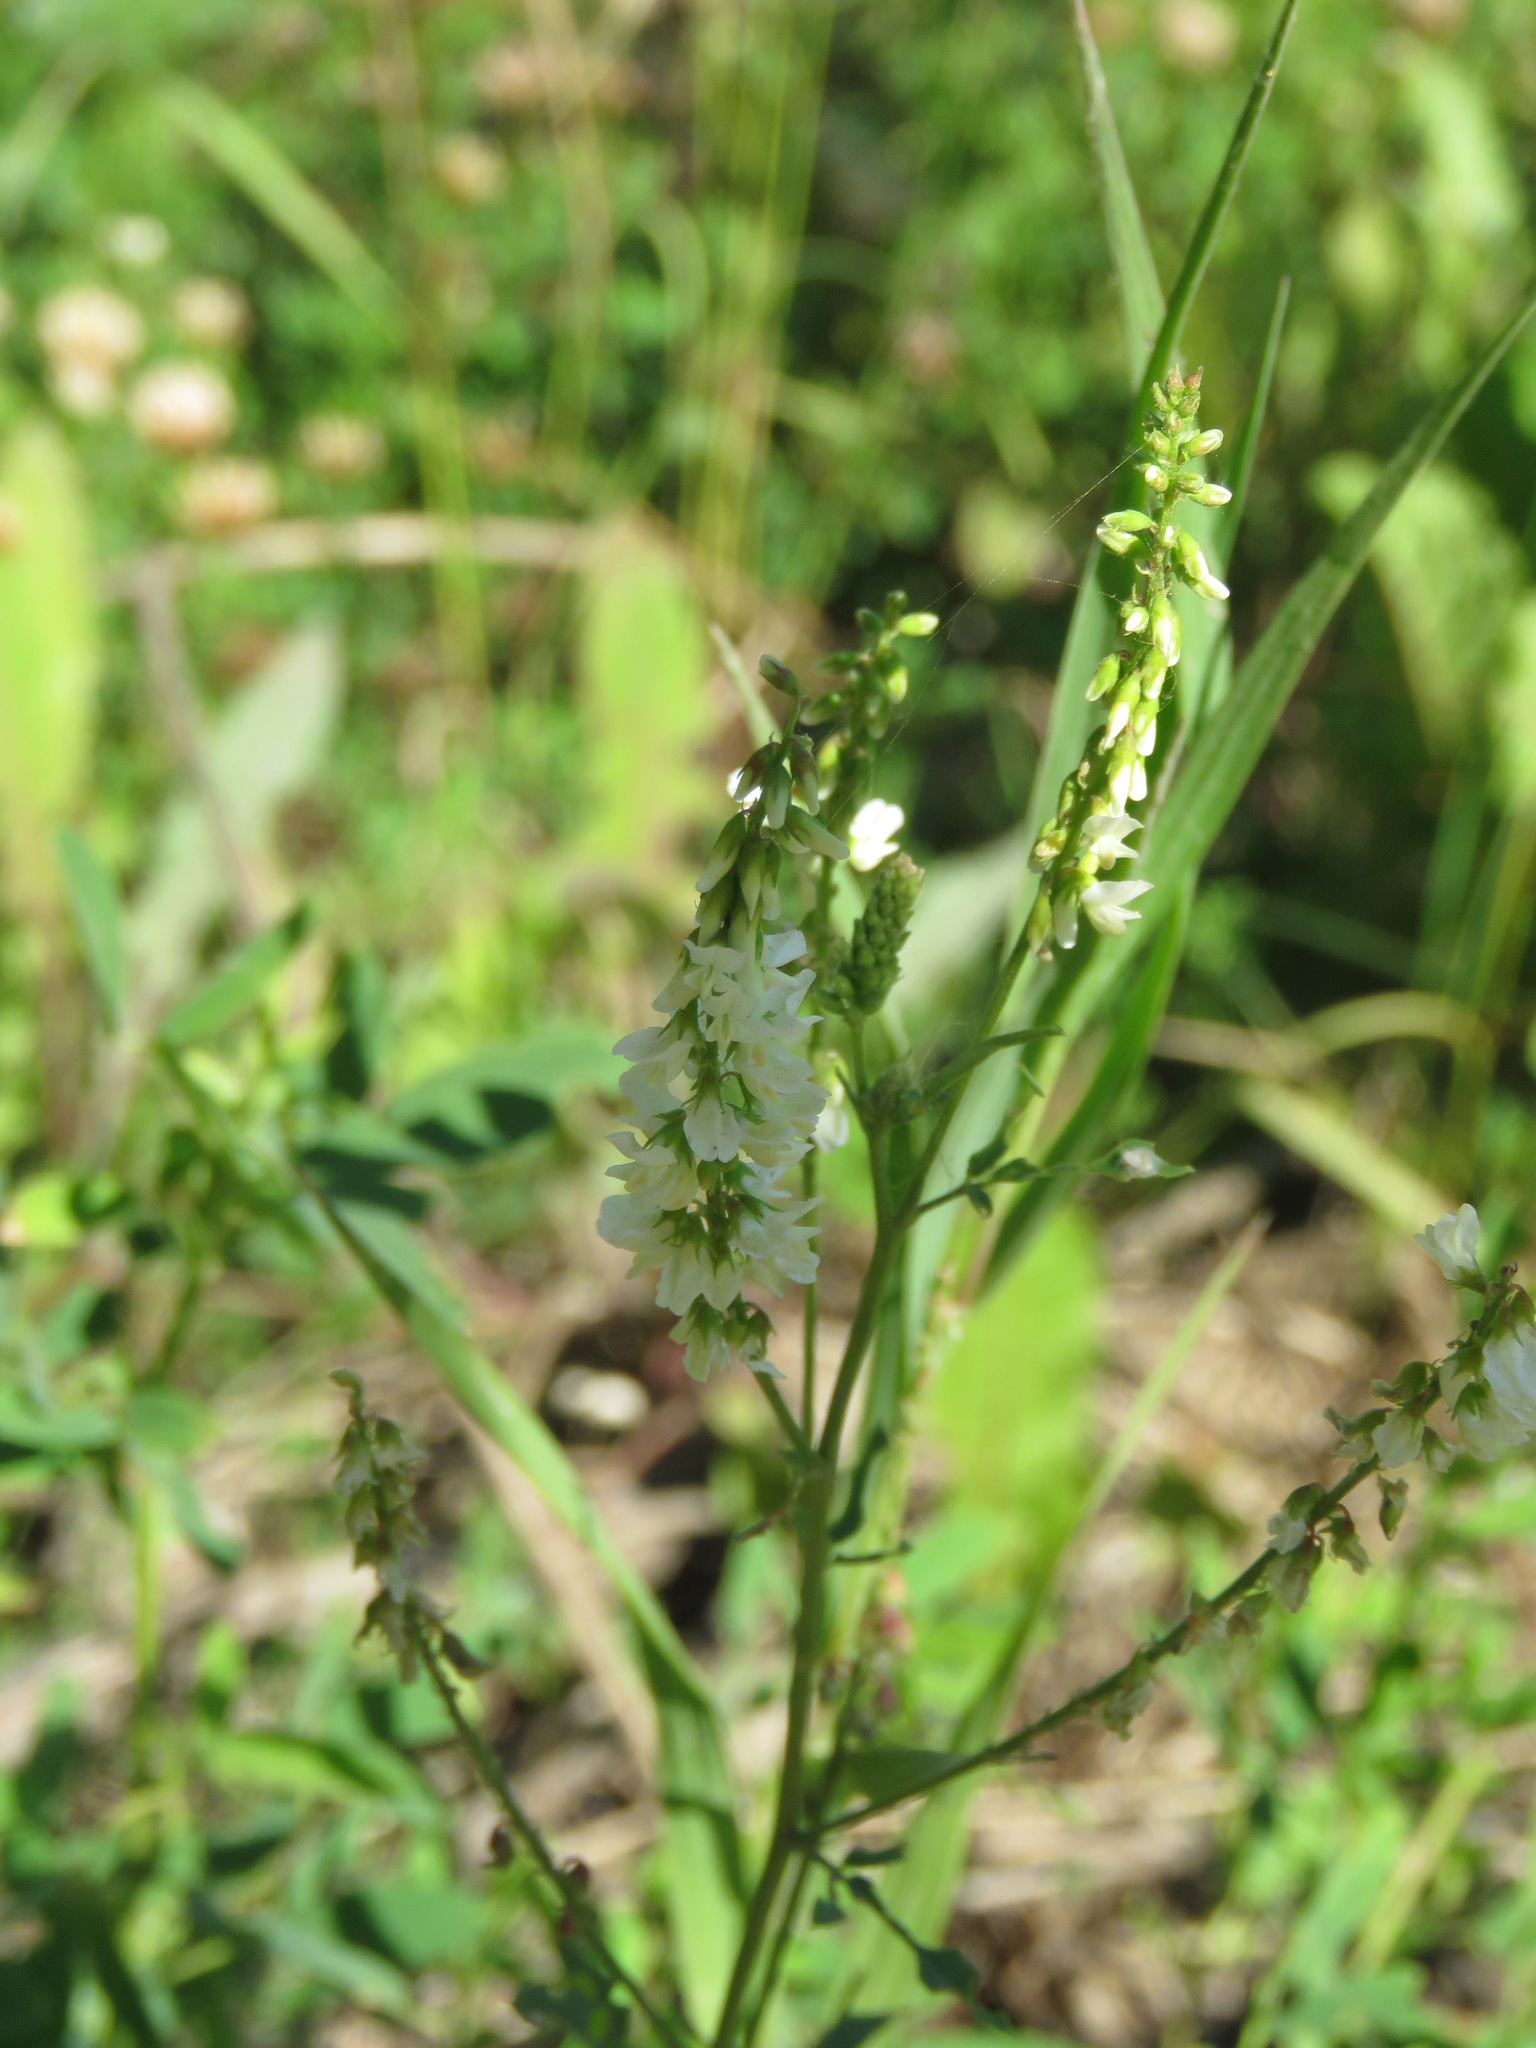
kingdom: Plantae
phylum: Tracheophyta
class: Magnoliopsida
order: Fabales
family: Fabaceae
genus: Melilotus
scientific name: Melilotus albus
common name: White melilot
